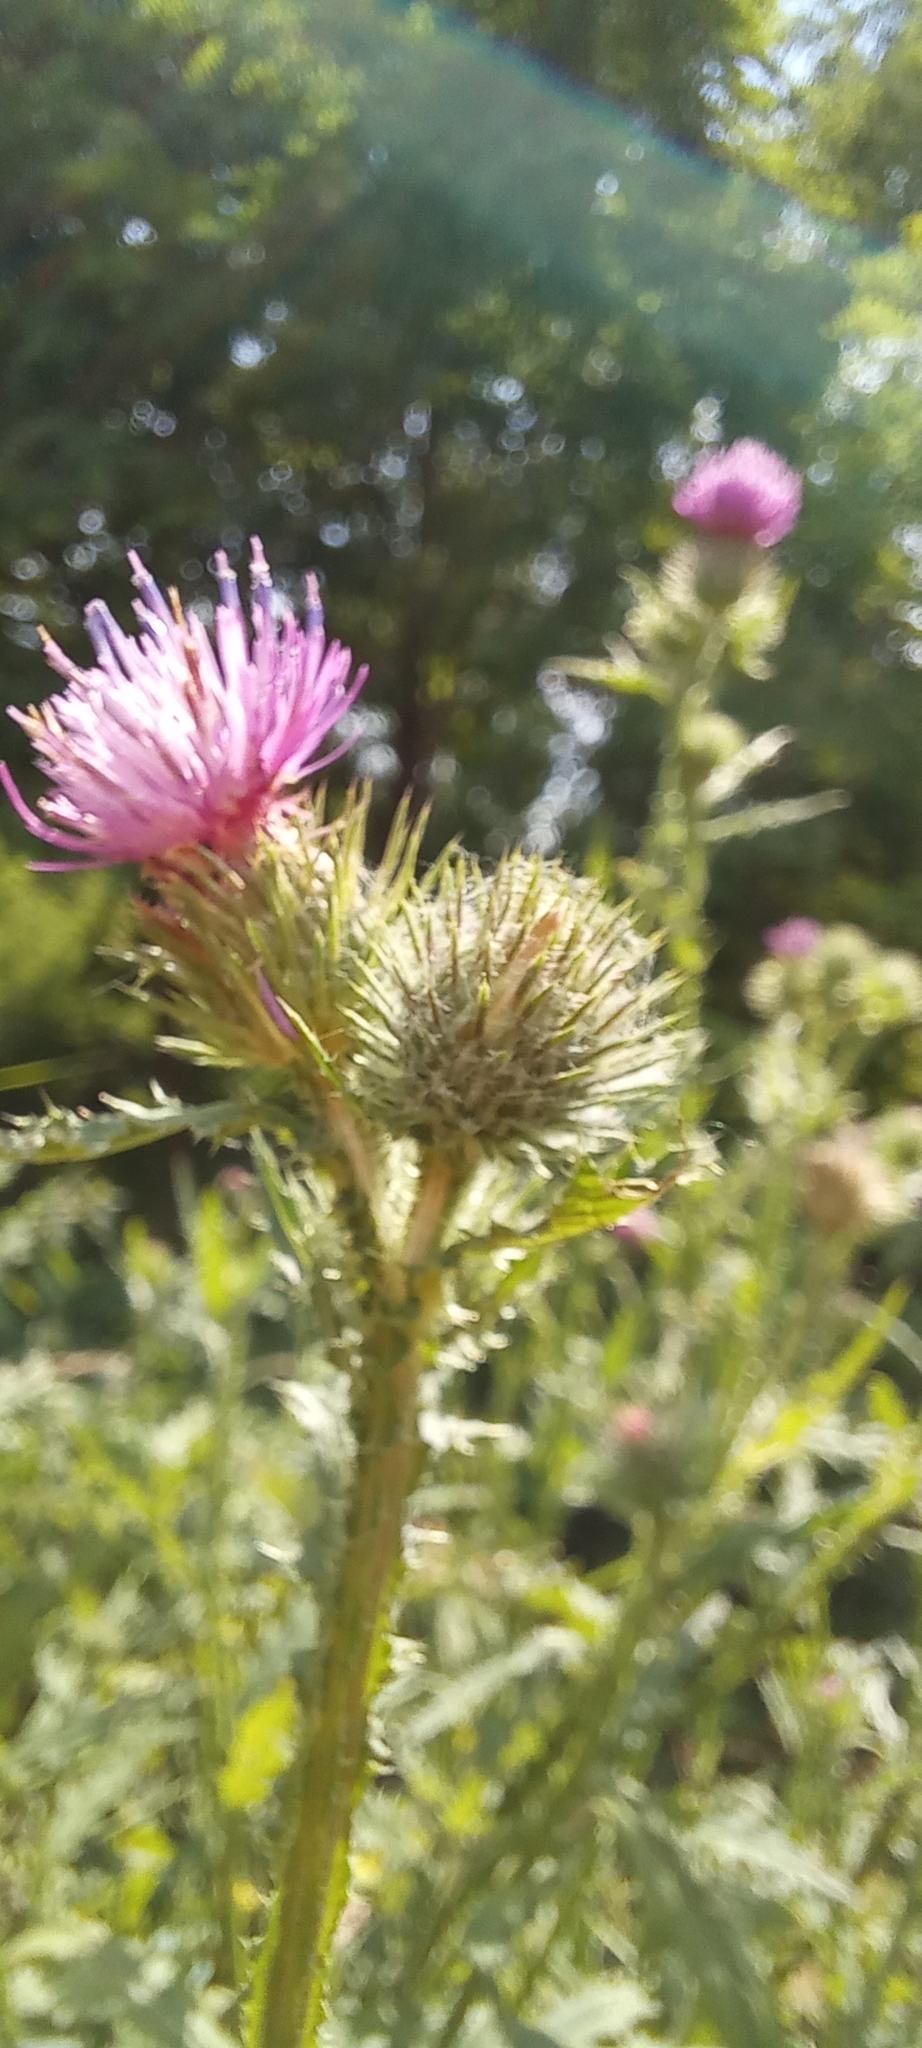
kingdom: Plantae
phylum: Tracheophyta
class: Magnoliopsida
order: Asterales
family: Asteraceae
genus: Carduus
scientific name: Carduus crispus
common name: Welted thistle
